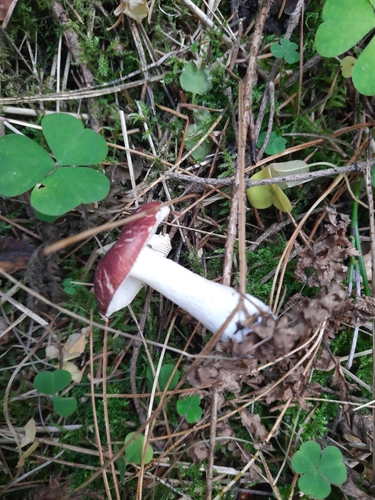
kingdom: Fungi
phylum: Basidiomycota
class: Agaricomycetes
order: Russulales
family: Russulaceae
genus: Russula
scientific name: Russula
